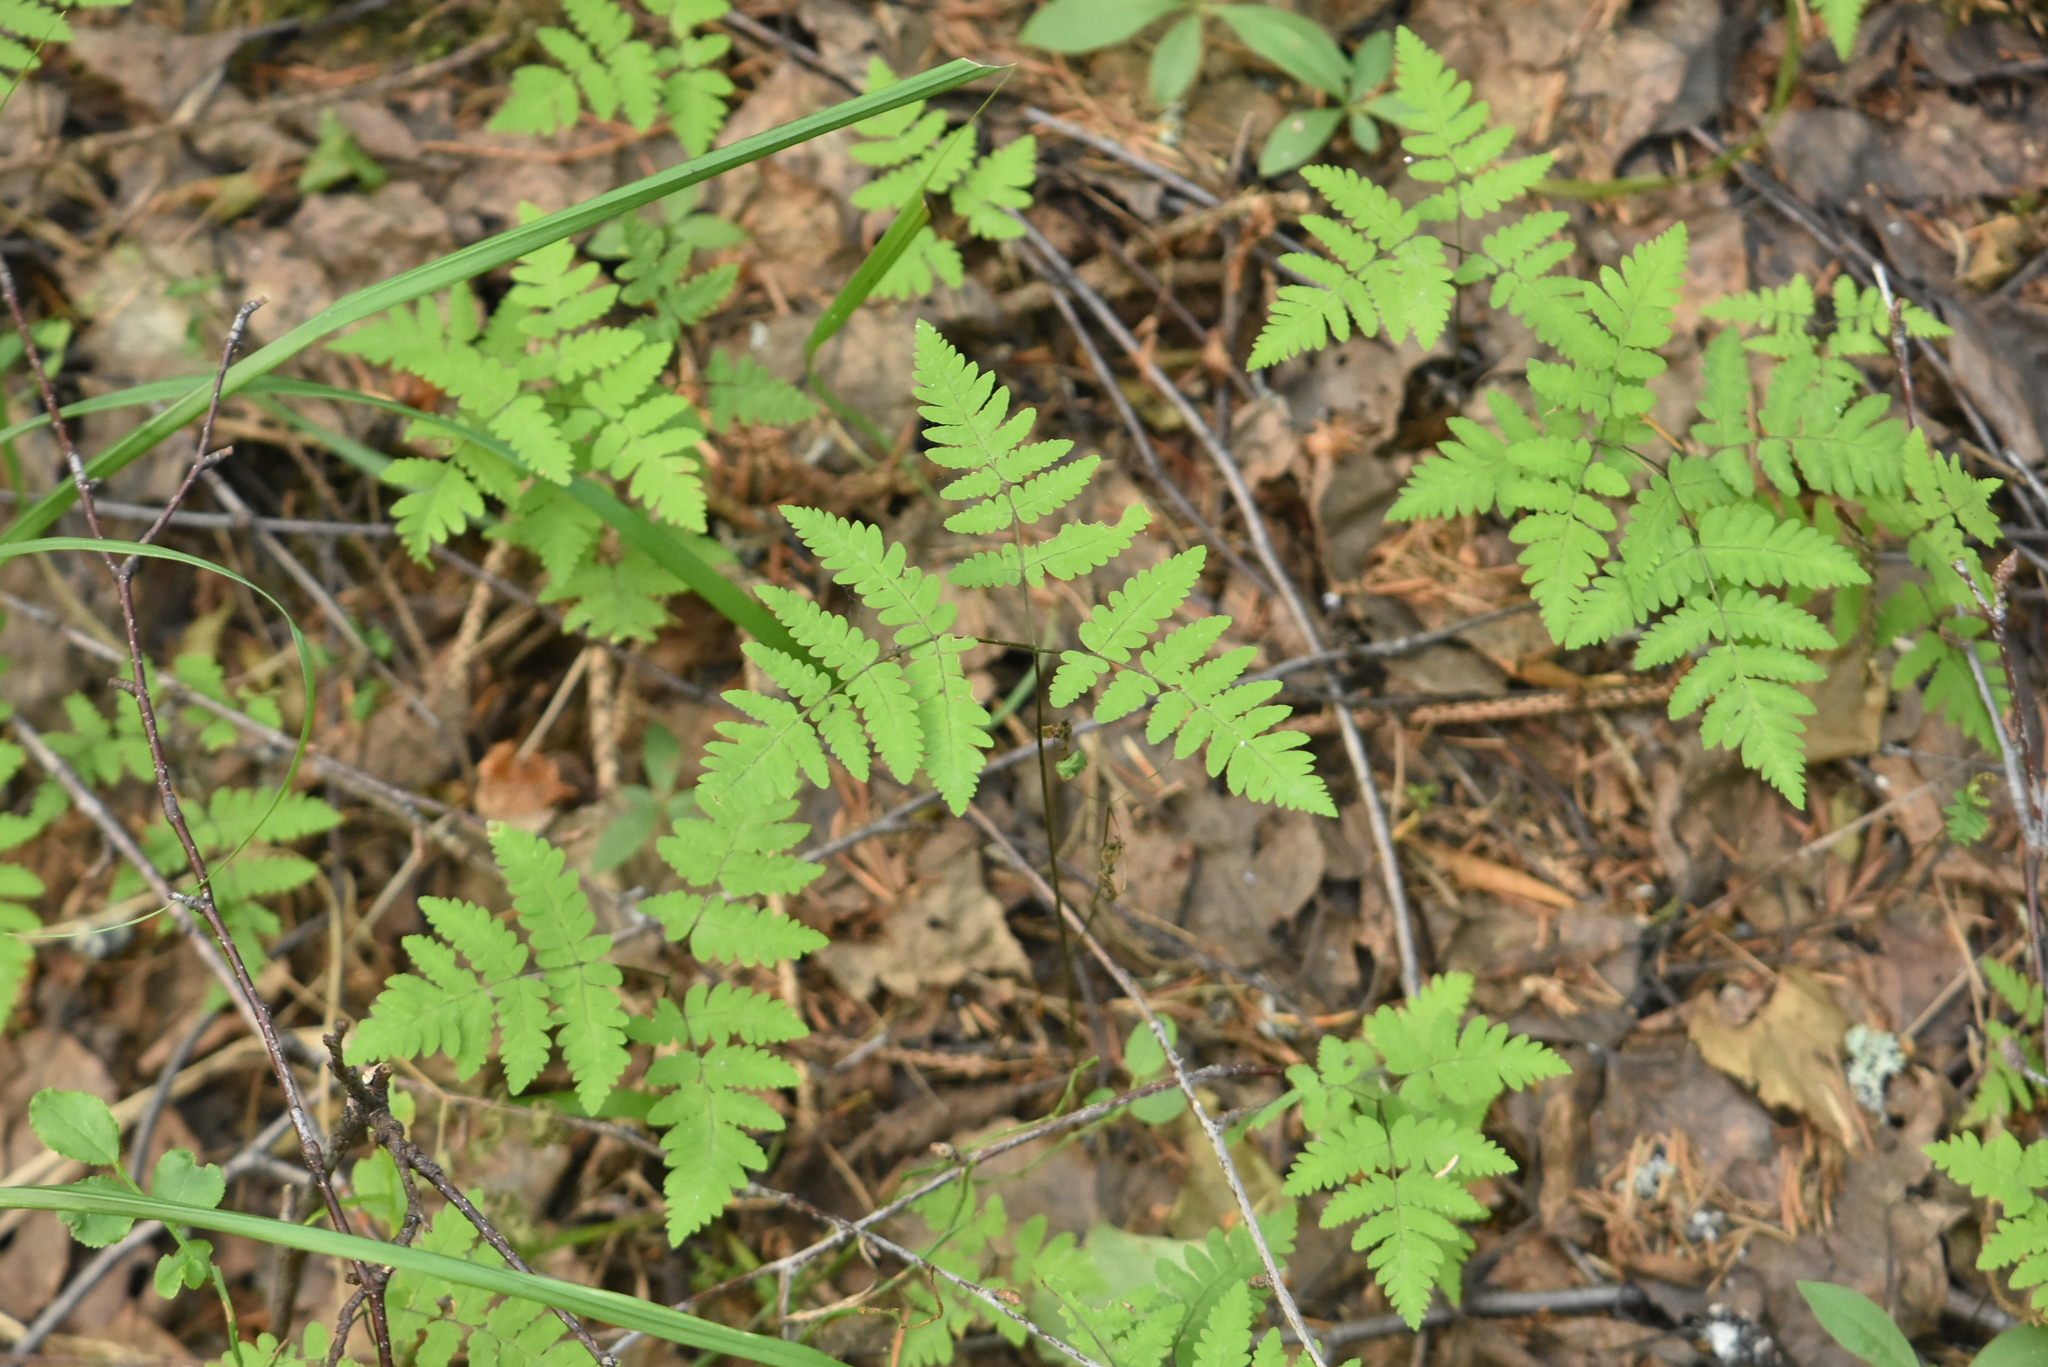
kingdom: Plantae
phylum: Tracheophyta
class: Polypodiopsida
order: Polypodiales
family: Cystopteridaceae
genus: Gymnocarpium
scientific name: Gymnocarpium dryopteris
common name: Oak fern
